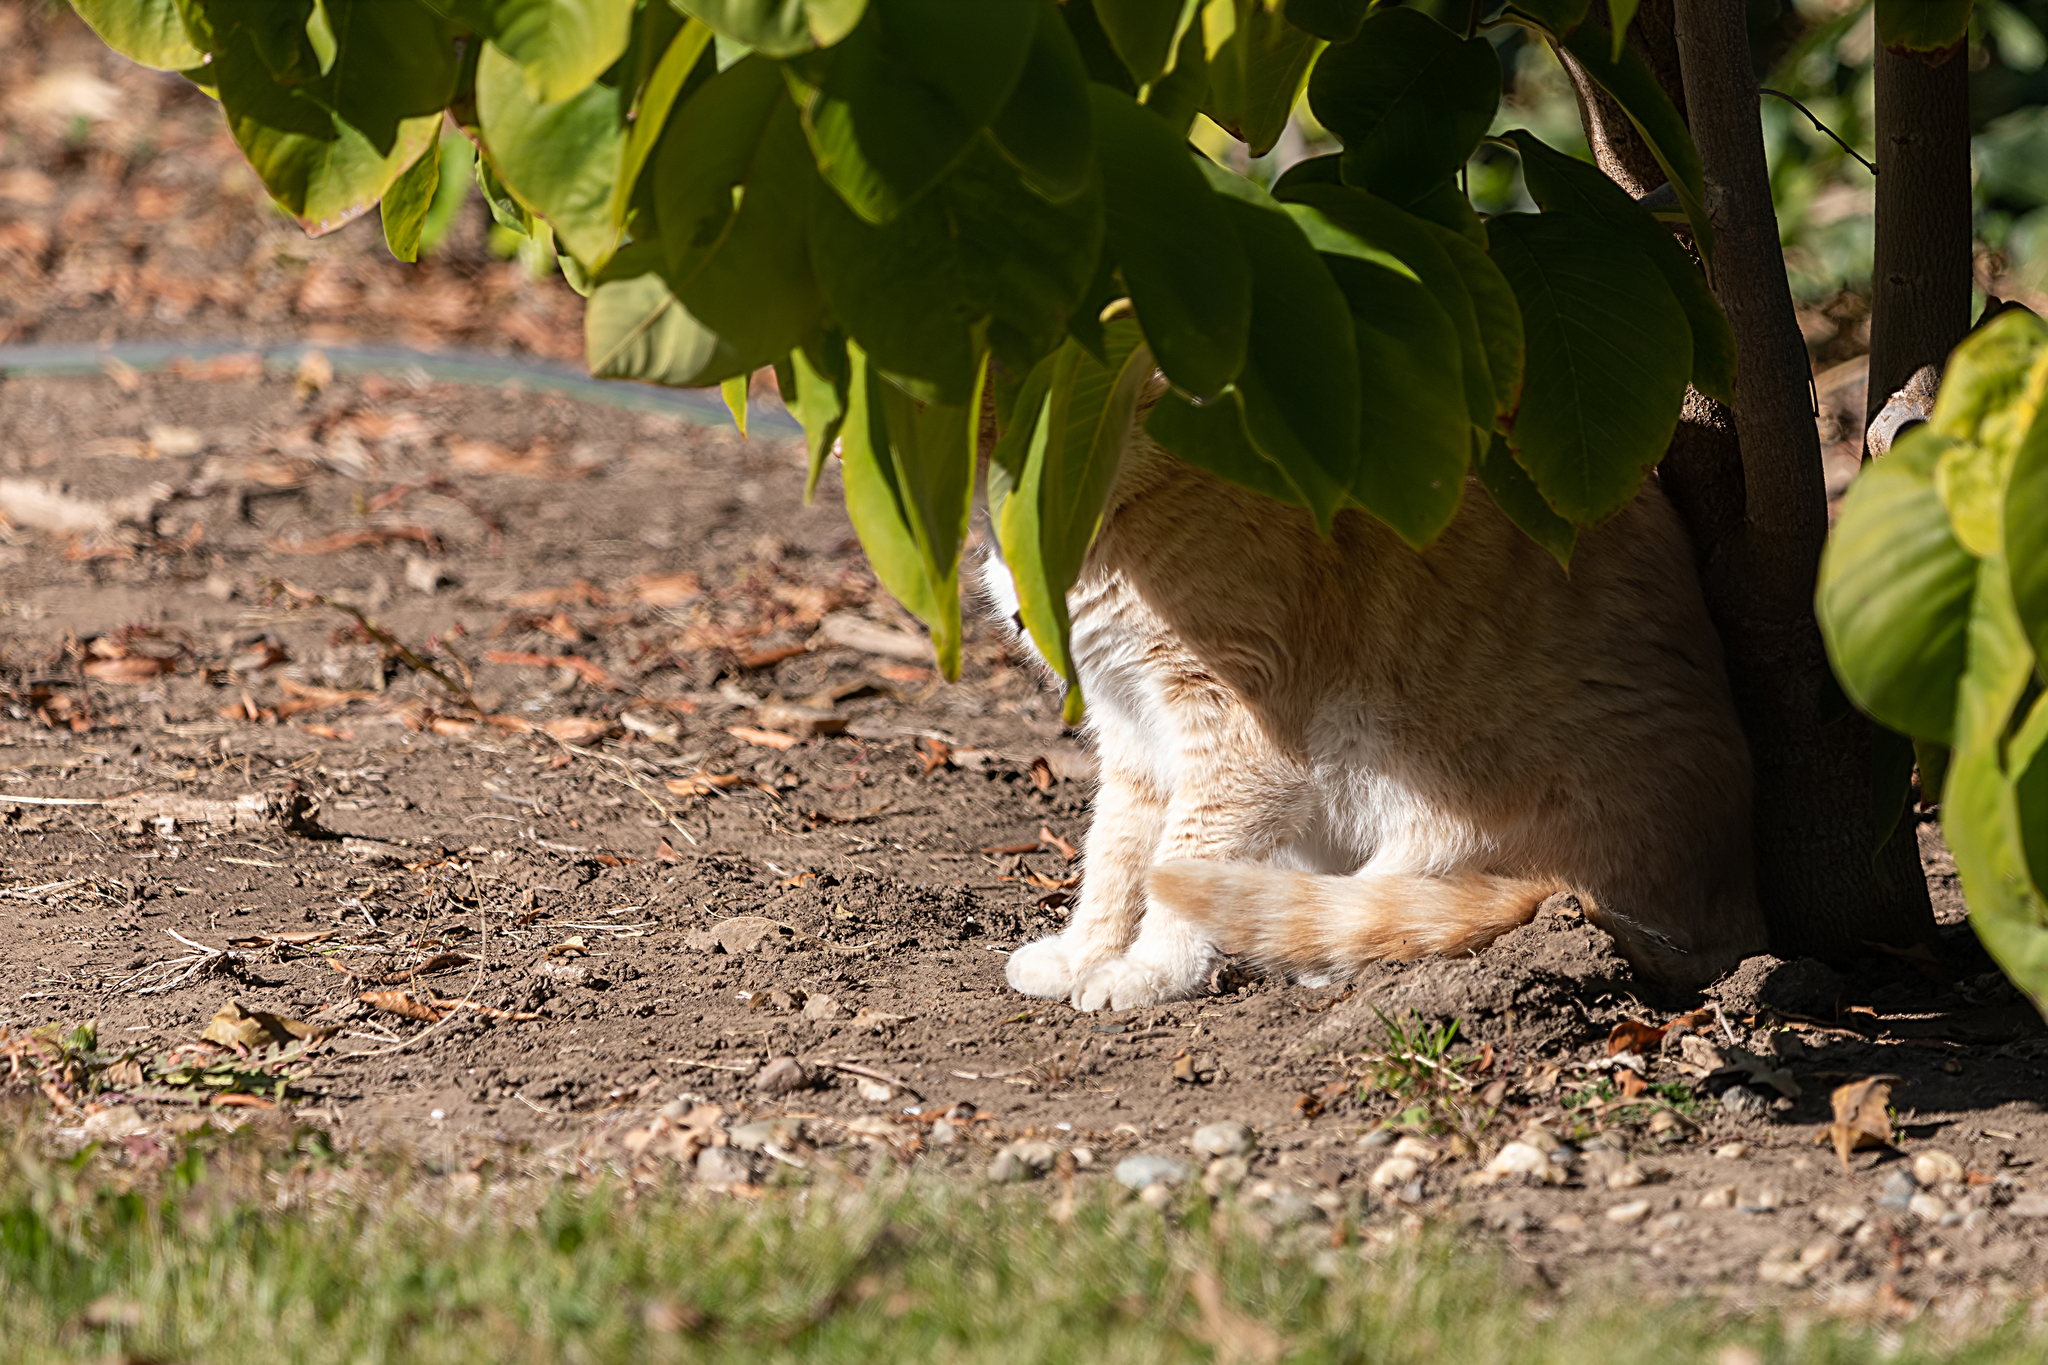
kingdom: Animalia
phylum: Chordata
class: Mammalia
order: Carnivora
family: Felidae
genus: Felis
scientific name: Felis catus
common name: Domestic cat
